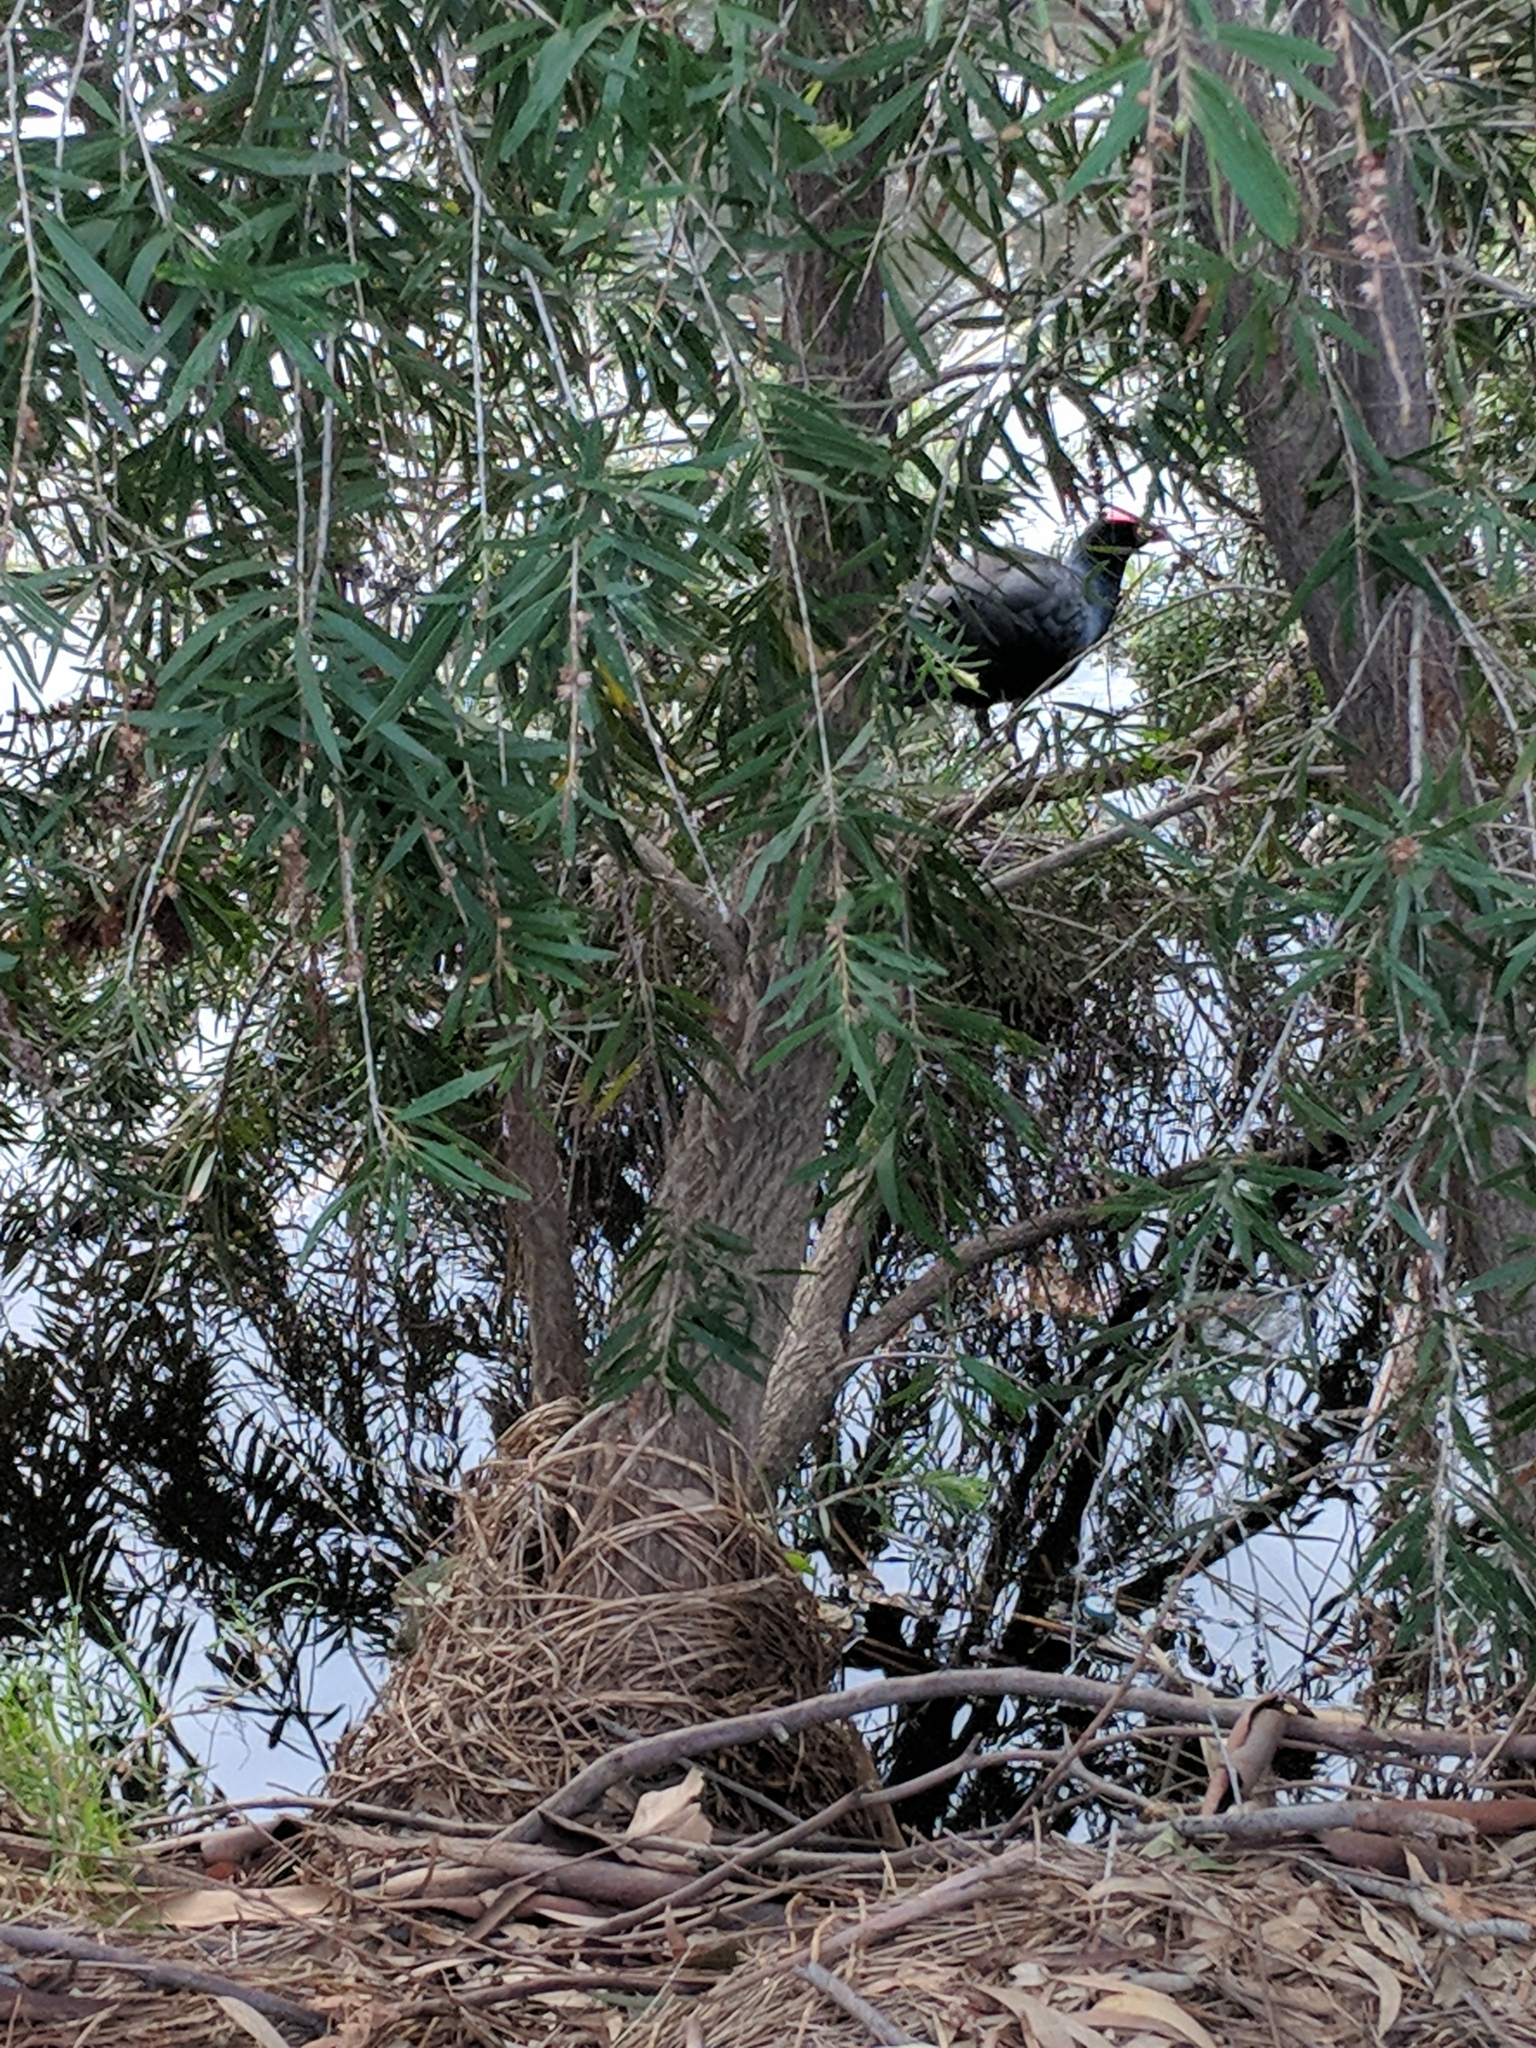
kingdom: Animalia
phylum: Chordata
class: Aves
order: Gruiformes
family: Rallidae
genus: Porphyrio
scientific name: Porphyrio melanotus
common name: Australasian swamphen
